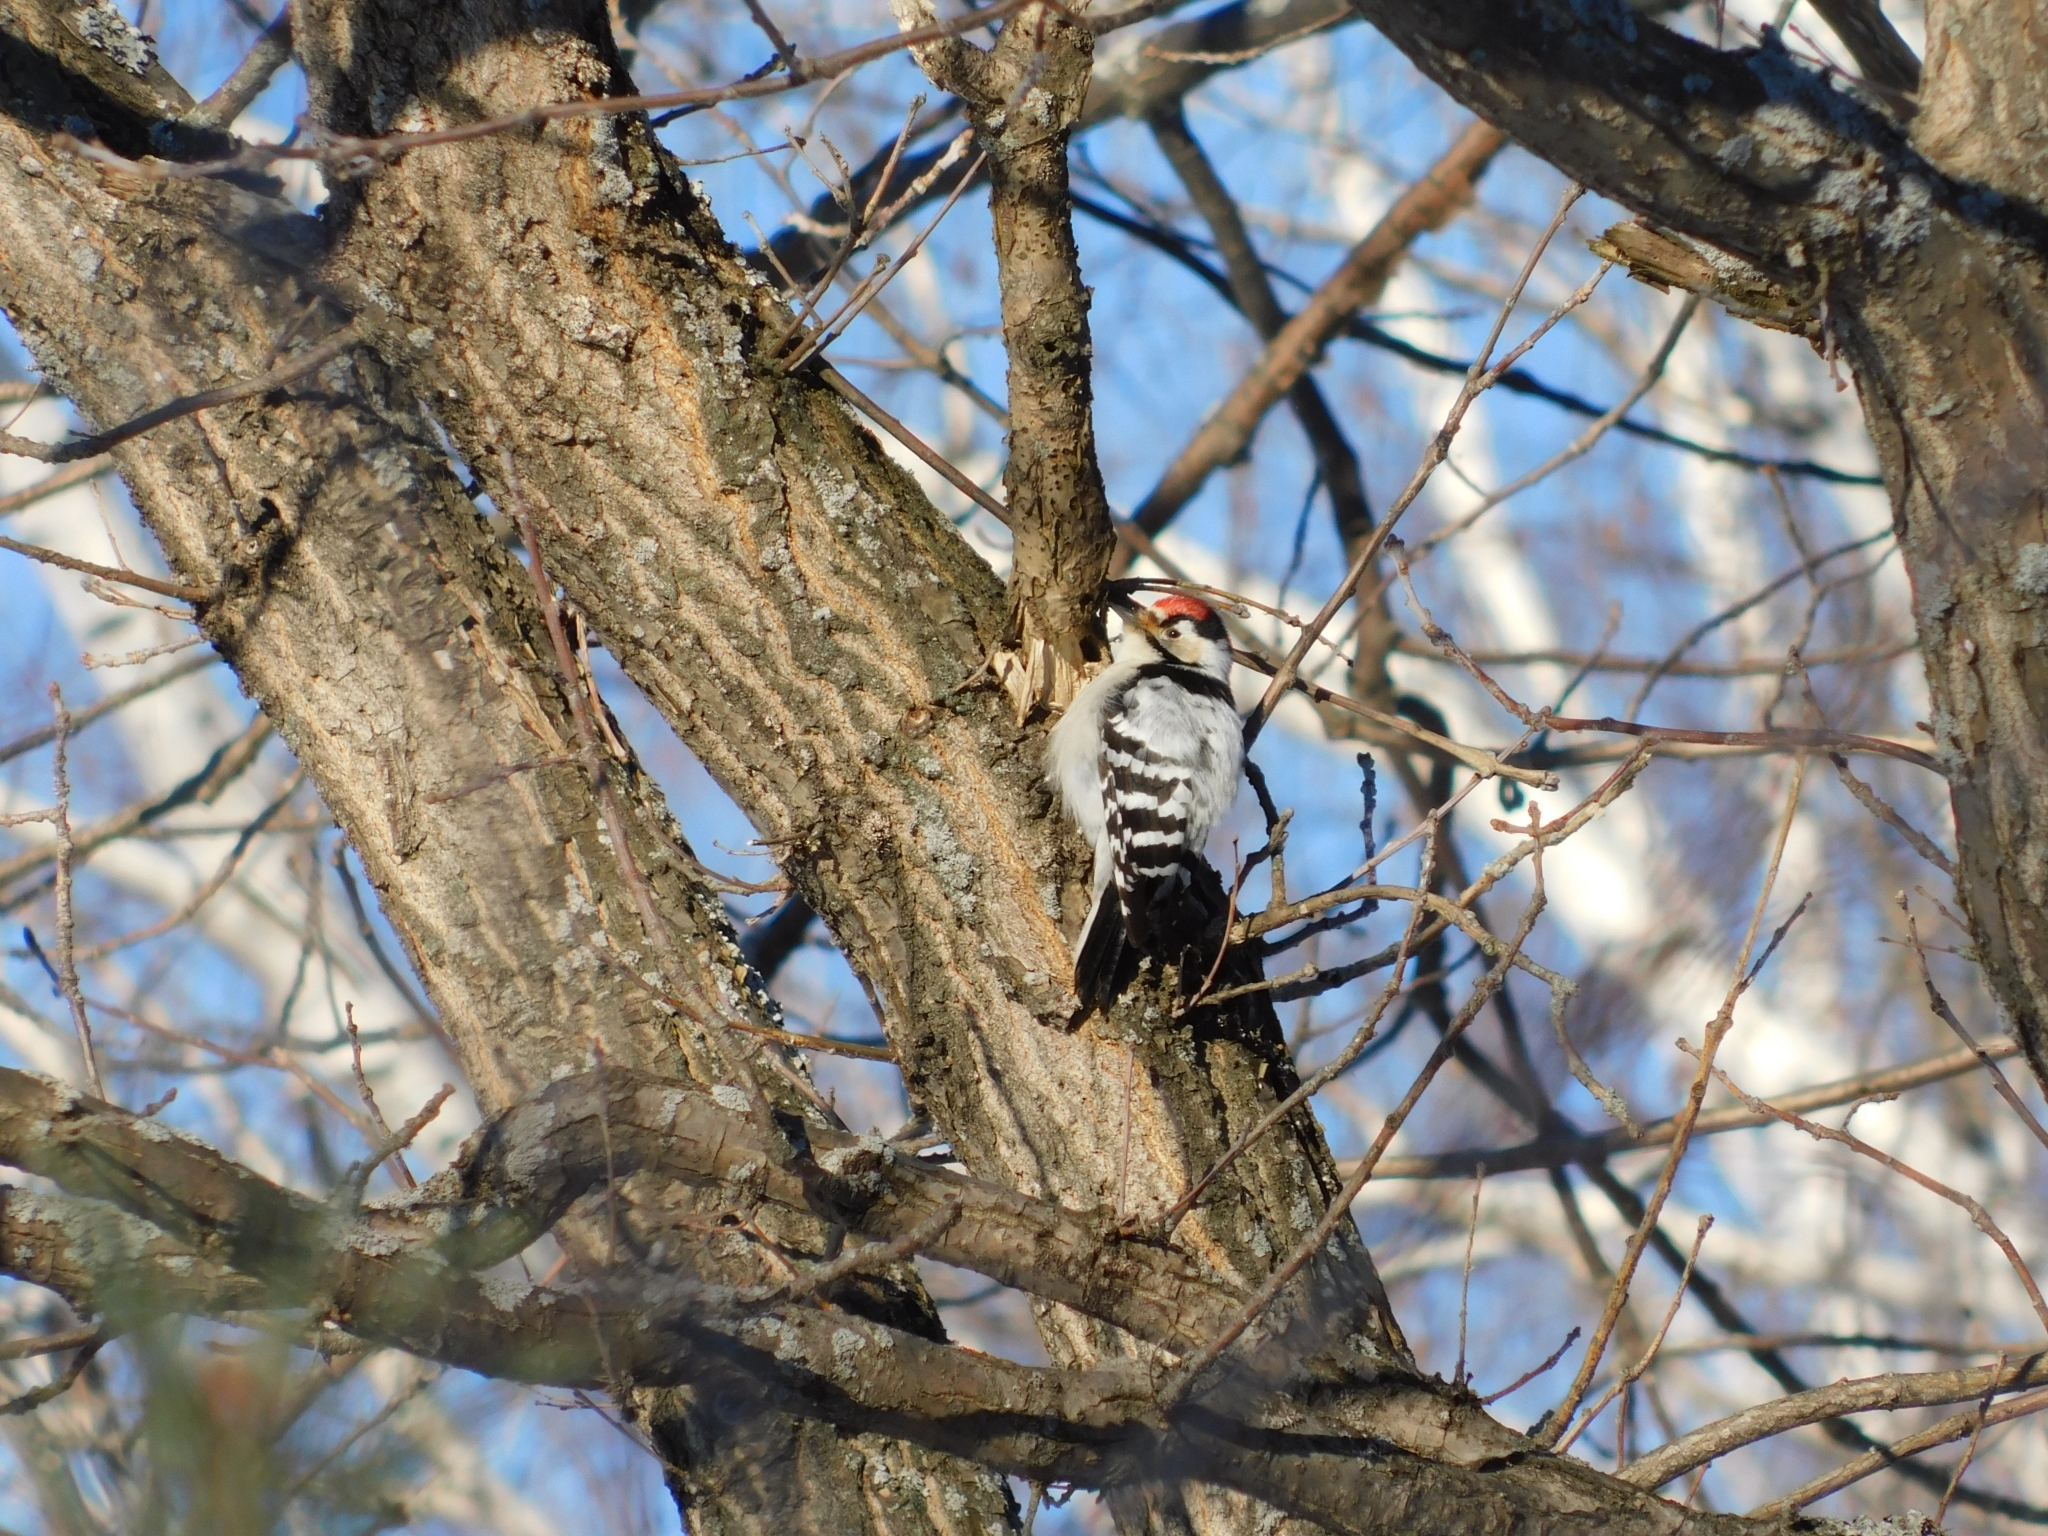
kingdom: Animalia
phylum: Chordata
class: Aves
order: Piciformes
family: Picidae
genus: Dryobates
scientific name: Dryobates minor
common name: Lesser spotted woodpecker
